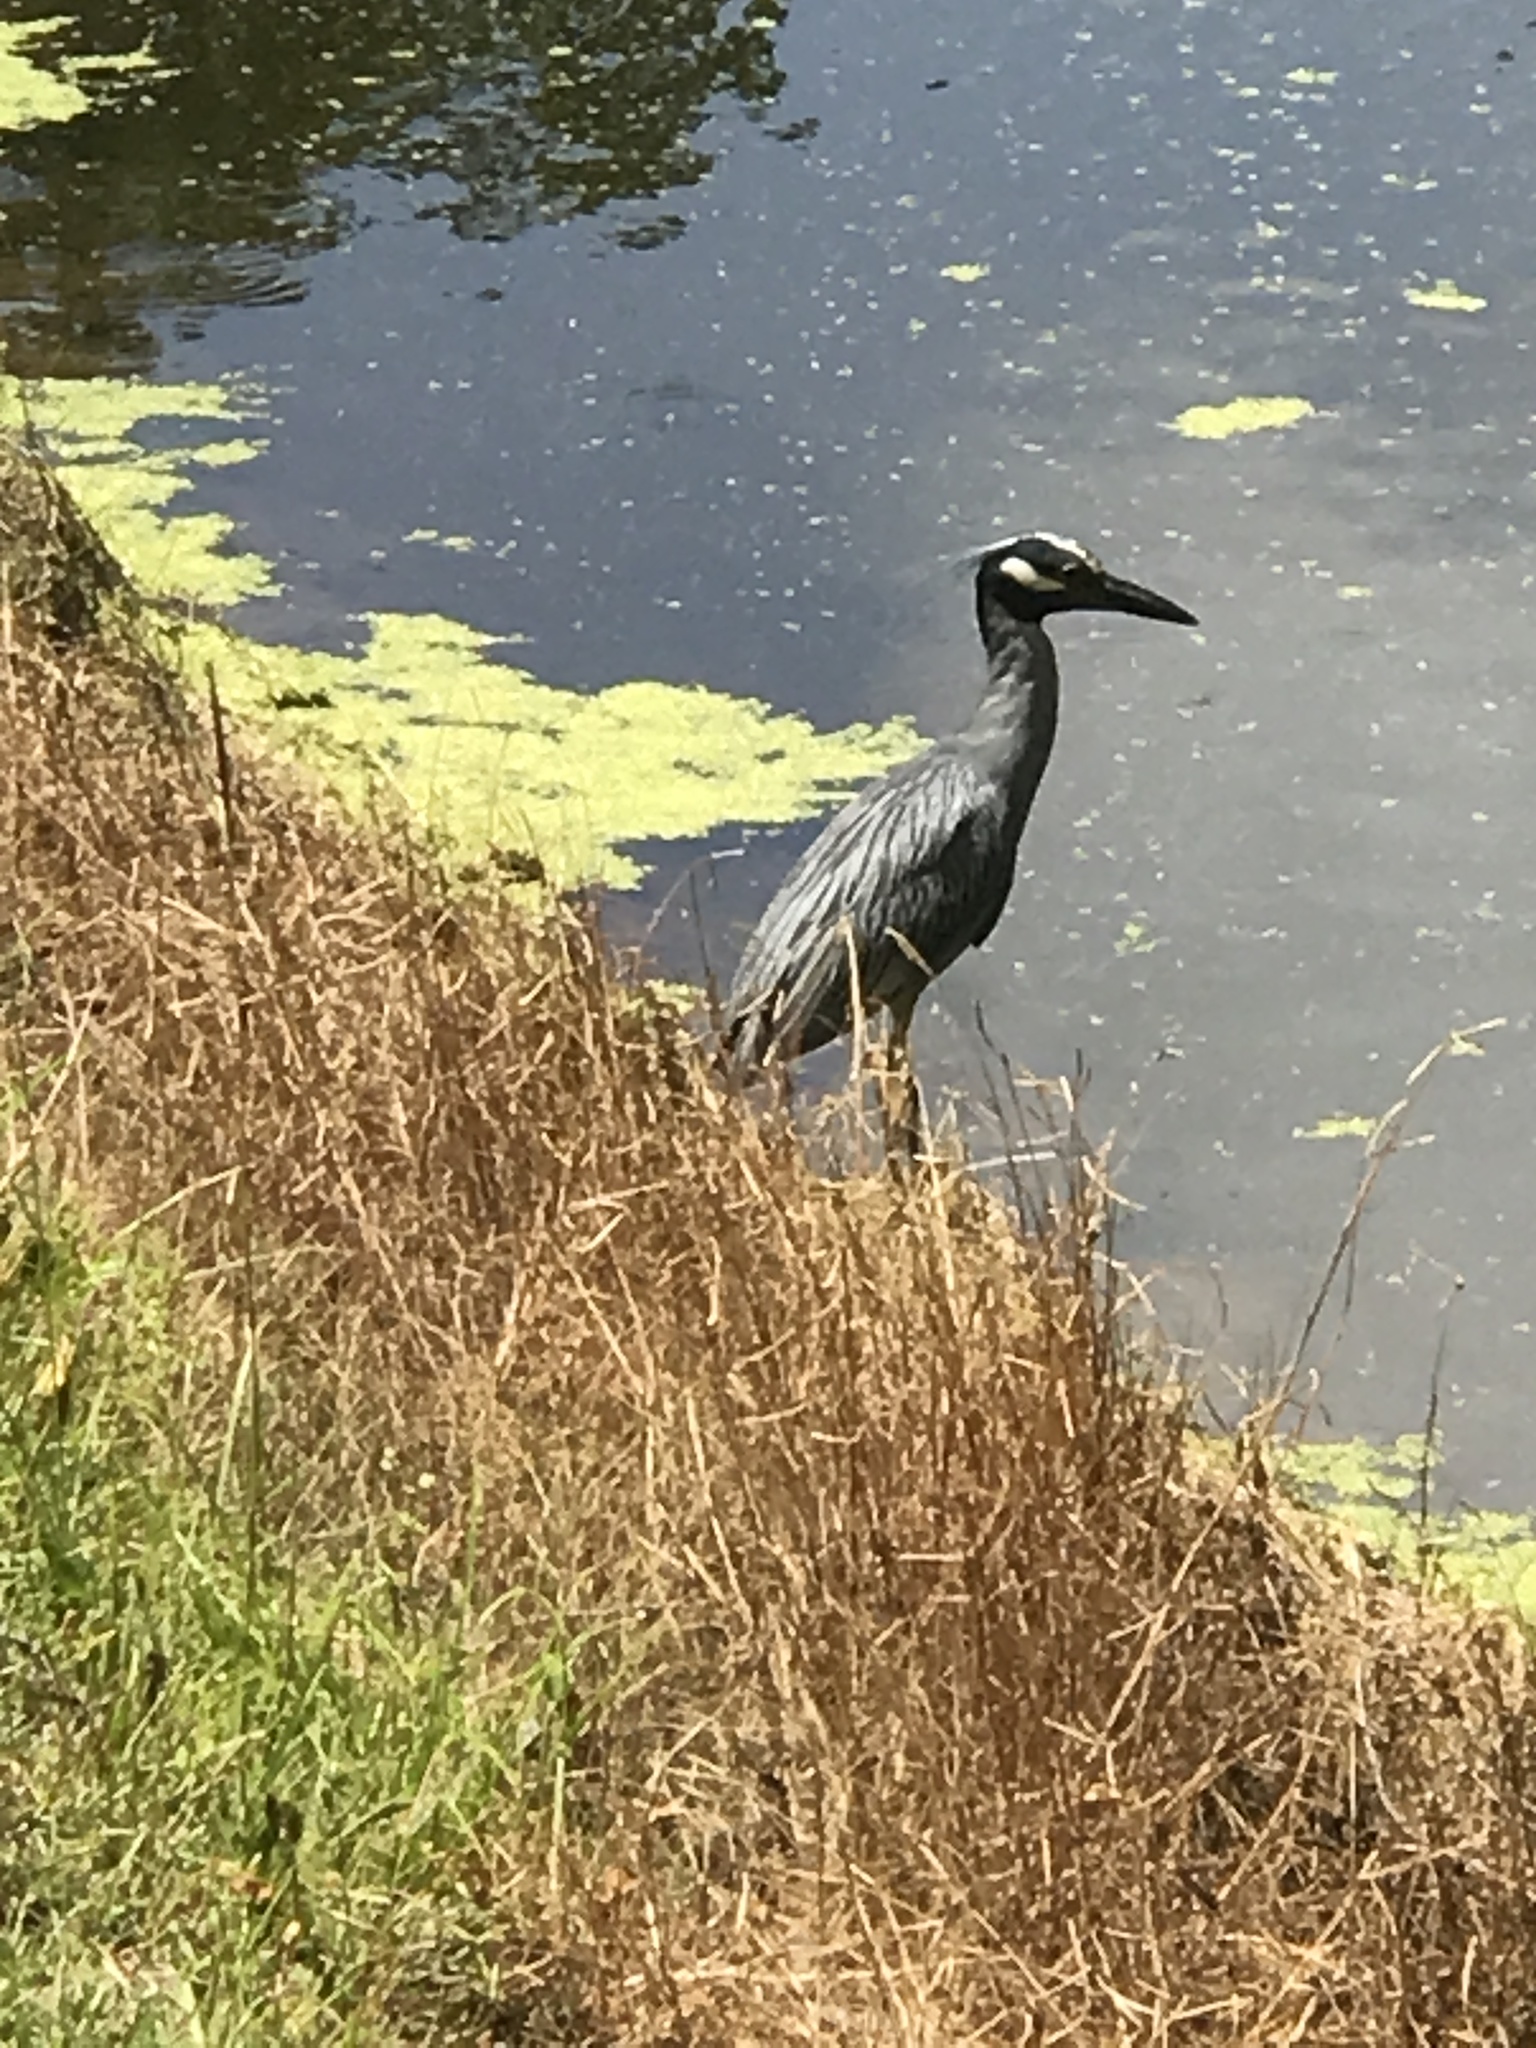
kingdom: Animalia
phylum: Chordata
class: Aves
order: Pelecaniformes
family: Ardeidae
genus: Nyctanassa
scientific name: Nyctanassa violacea
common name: Yellow-crowned night heron
